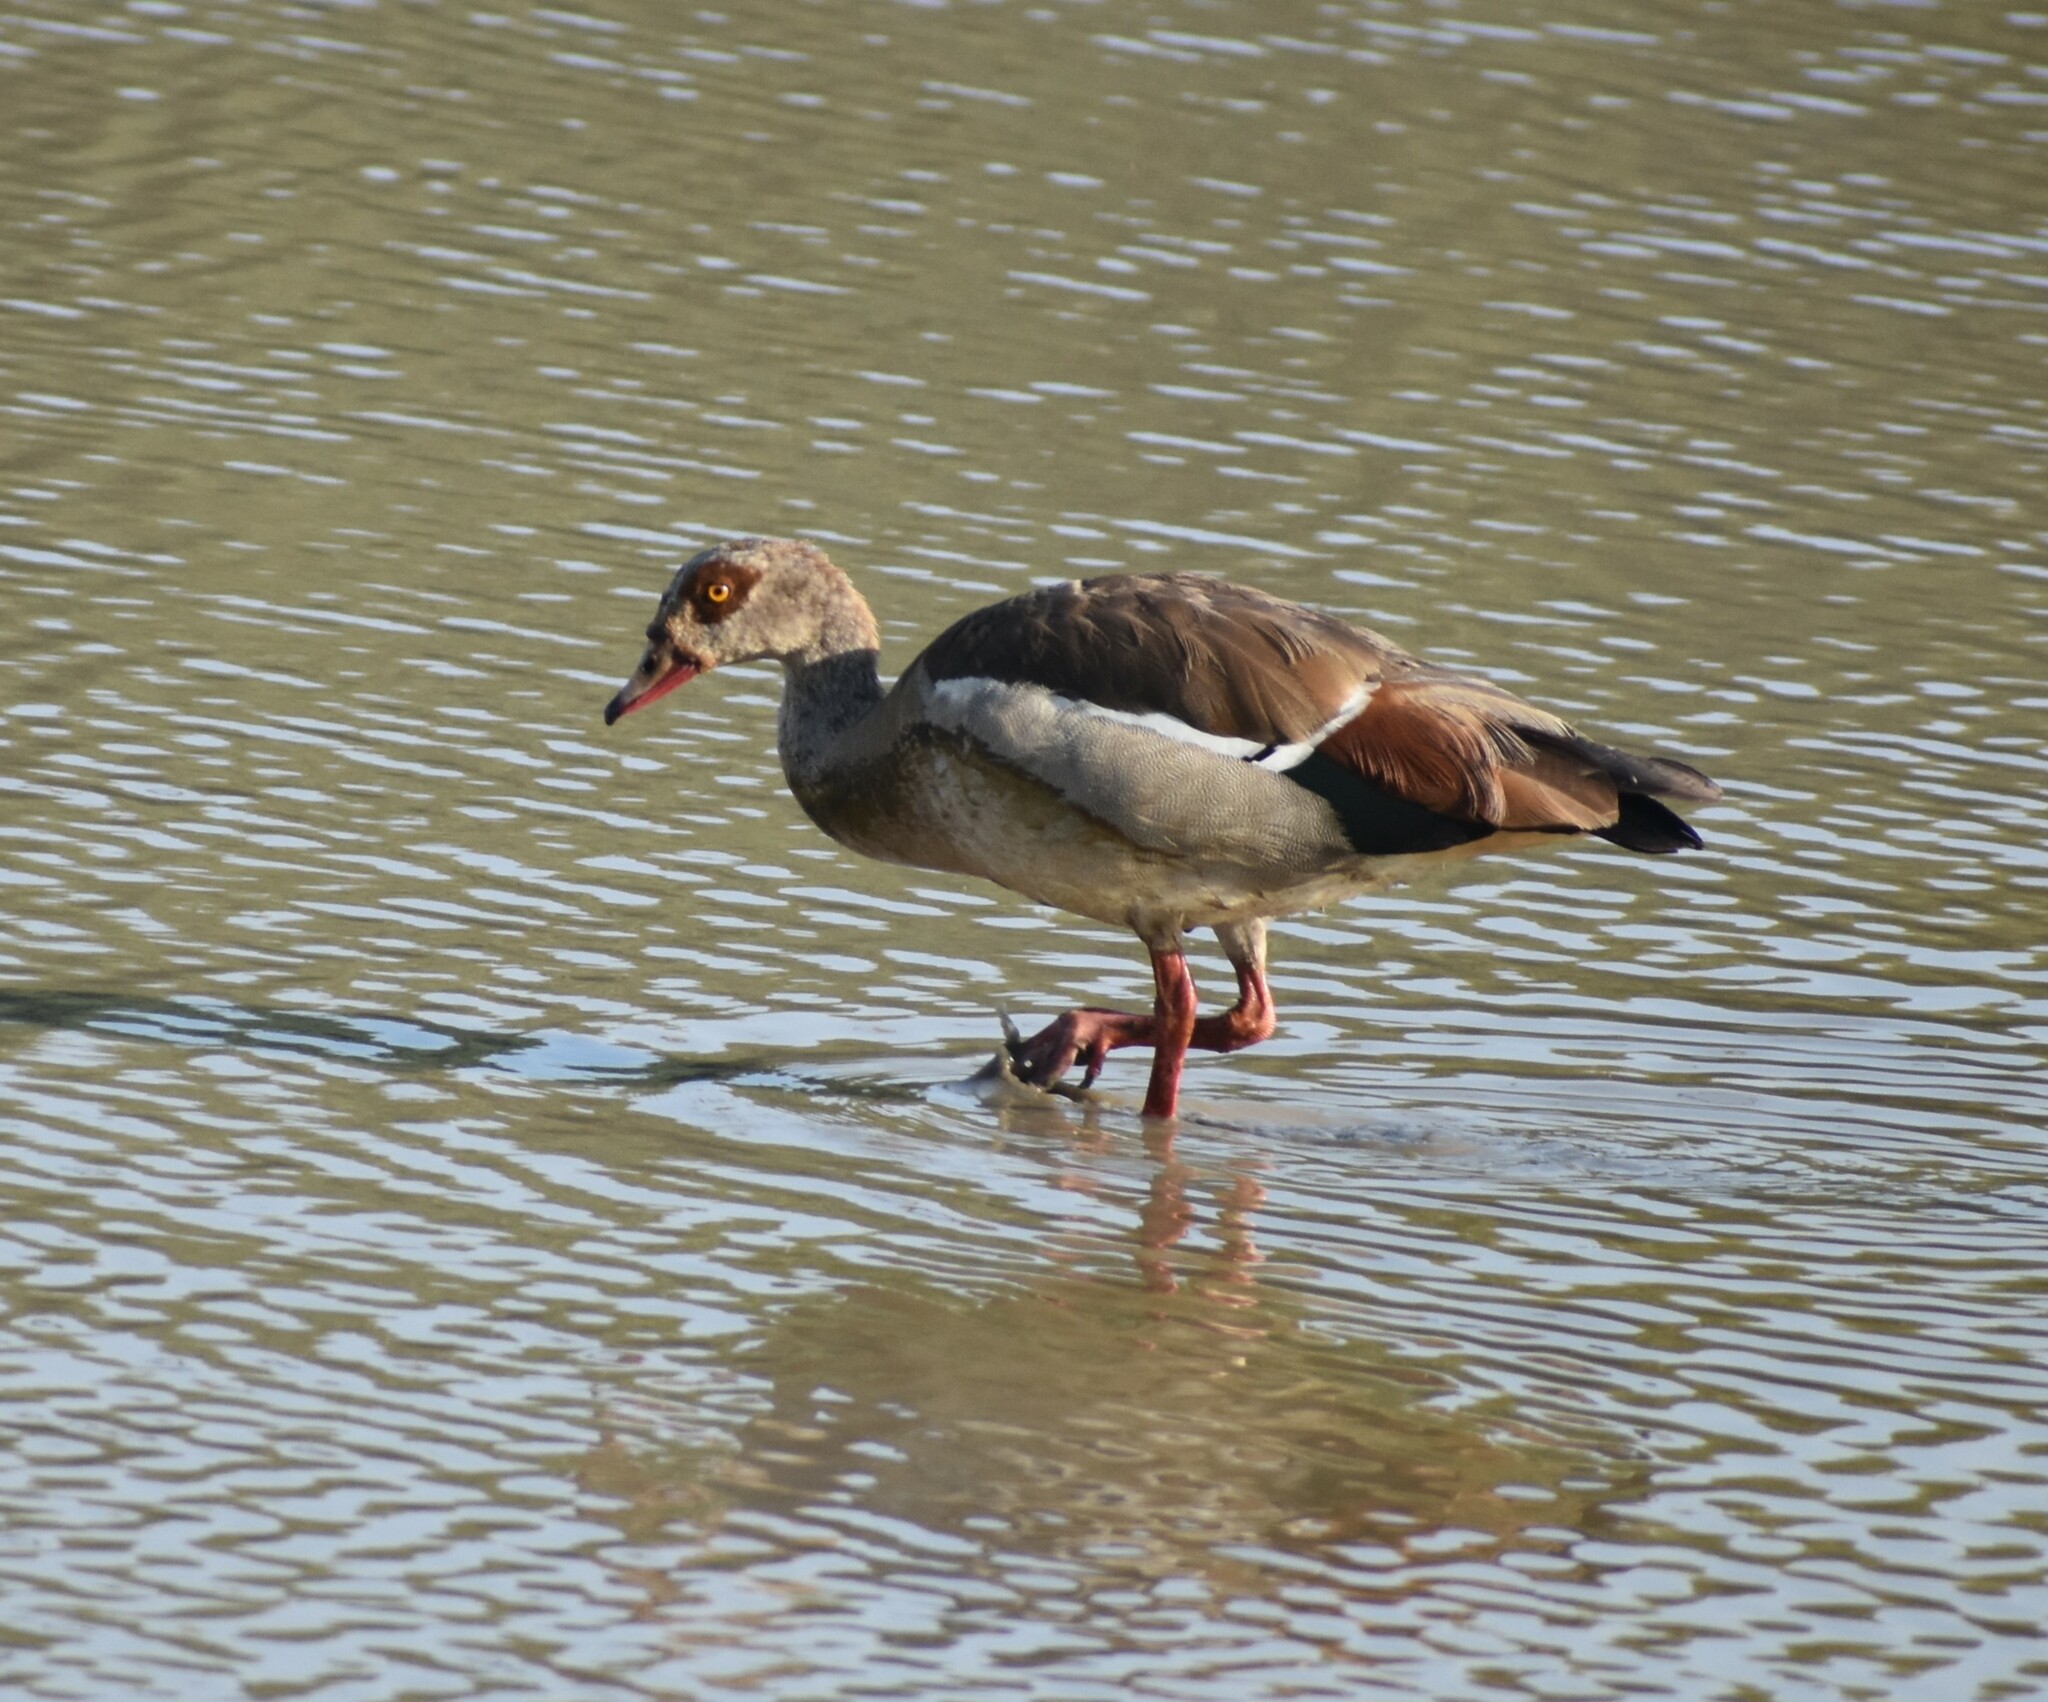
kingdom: Animalia
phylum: Chordata
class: Aves
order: Anseriformes
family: Anatidae
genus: Alopochen
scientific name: Alopochen aegyptiaca
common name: Egyptian goose
